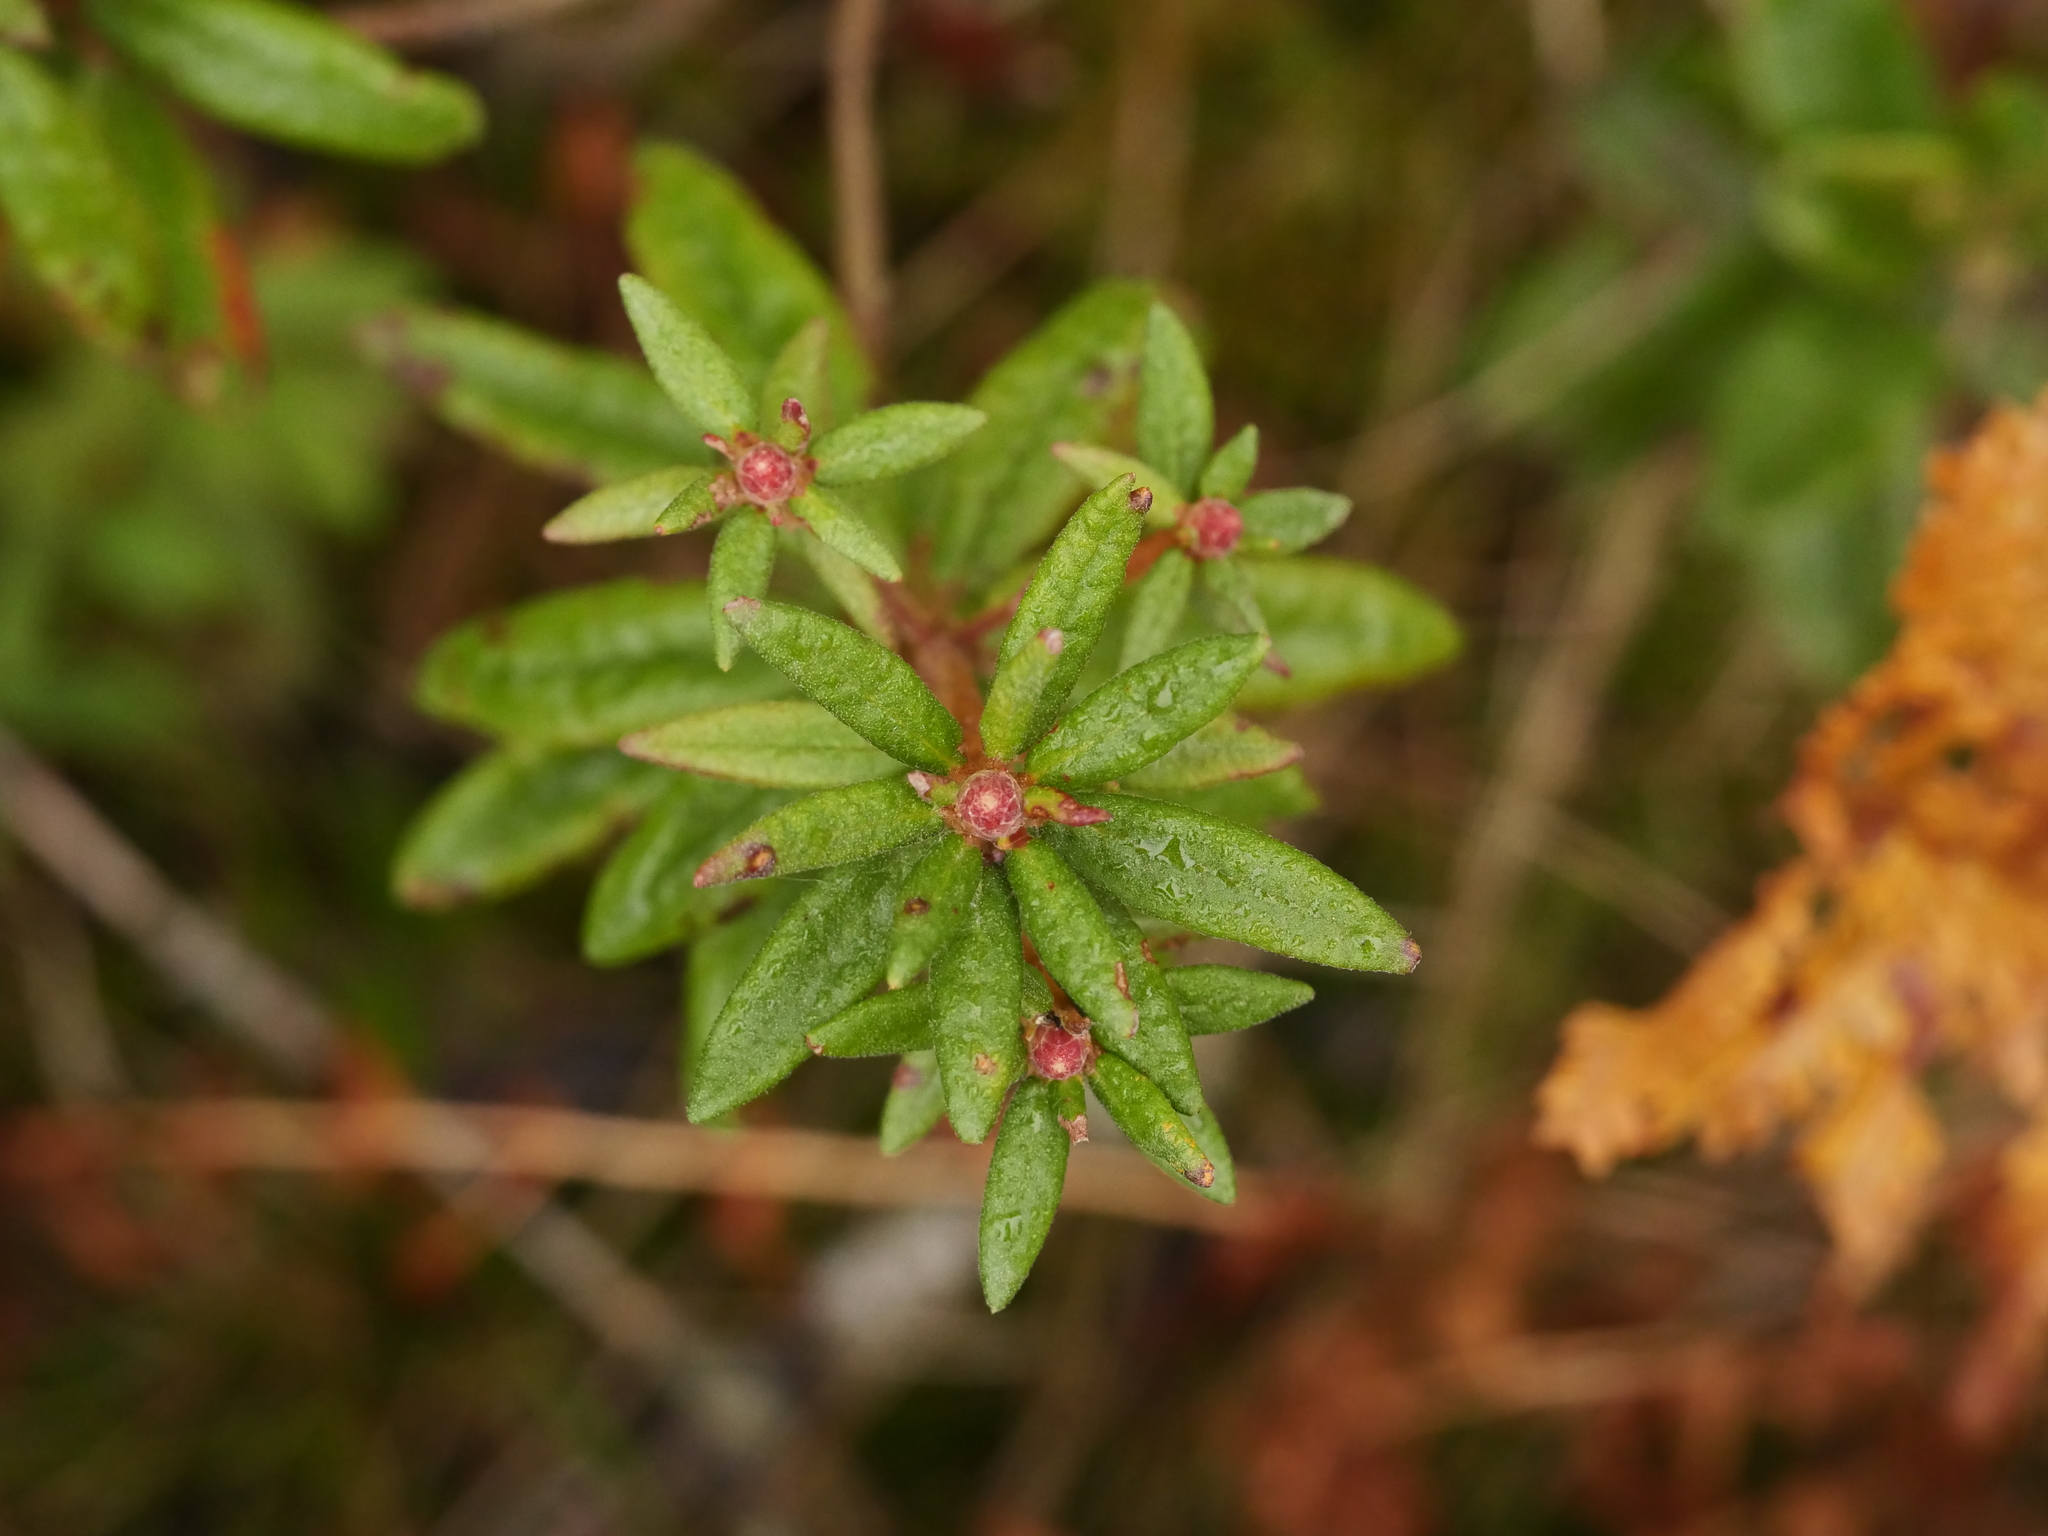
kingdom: Plantae
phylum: Tracheophyta
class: Magnoliopsida
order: Ericales
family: Ericaceae
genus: Rhododendron
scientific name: Rhododendron groenlandicum
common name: Bog labrador tea
